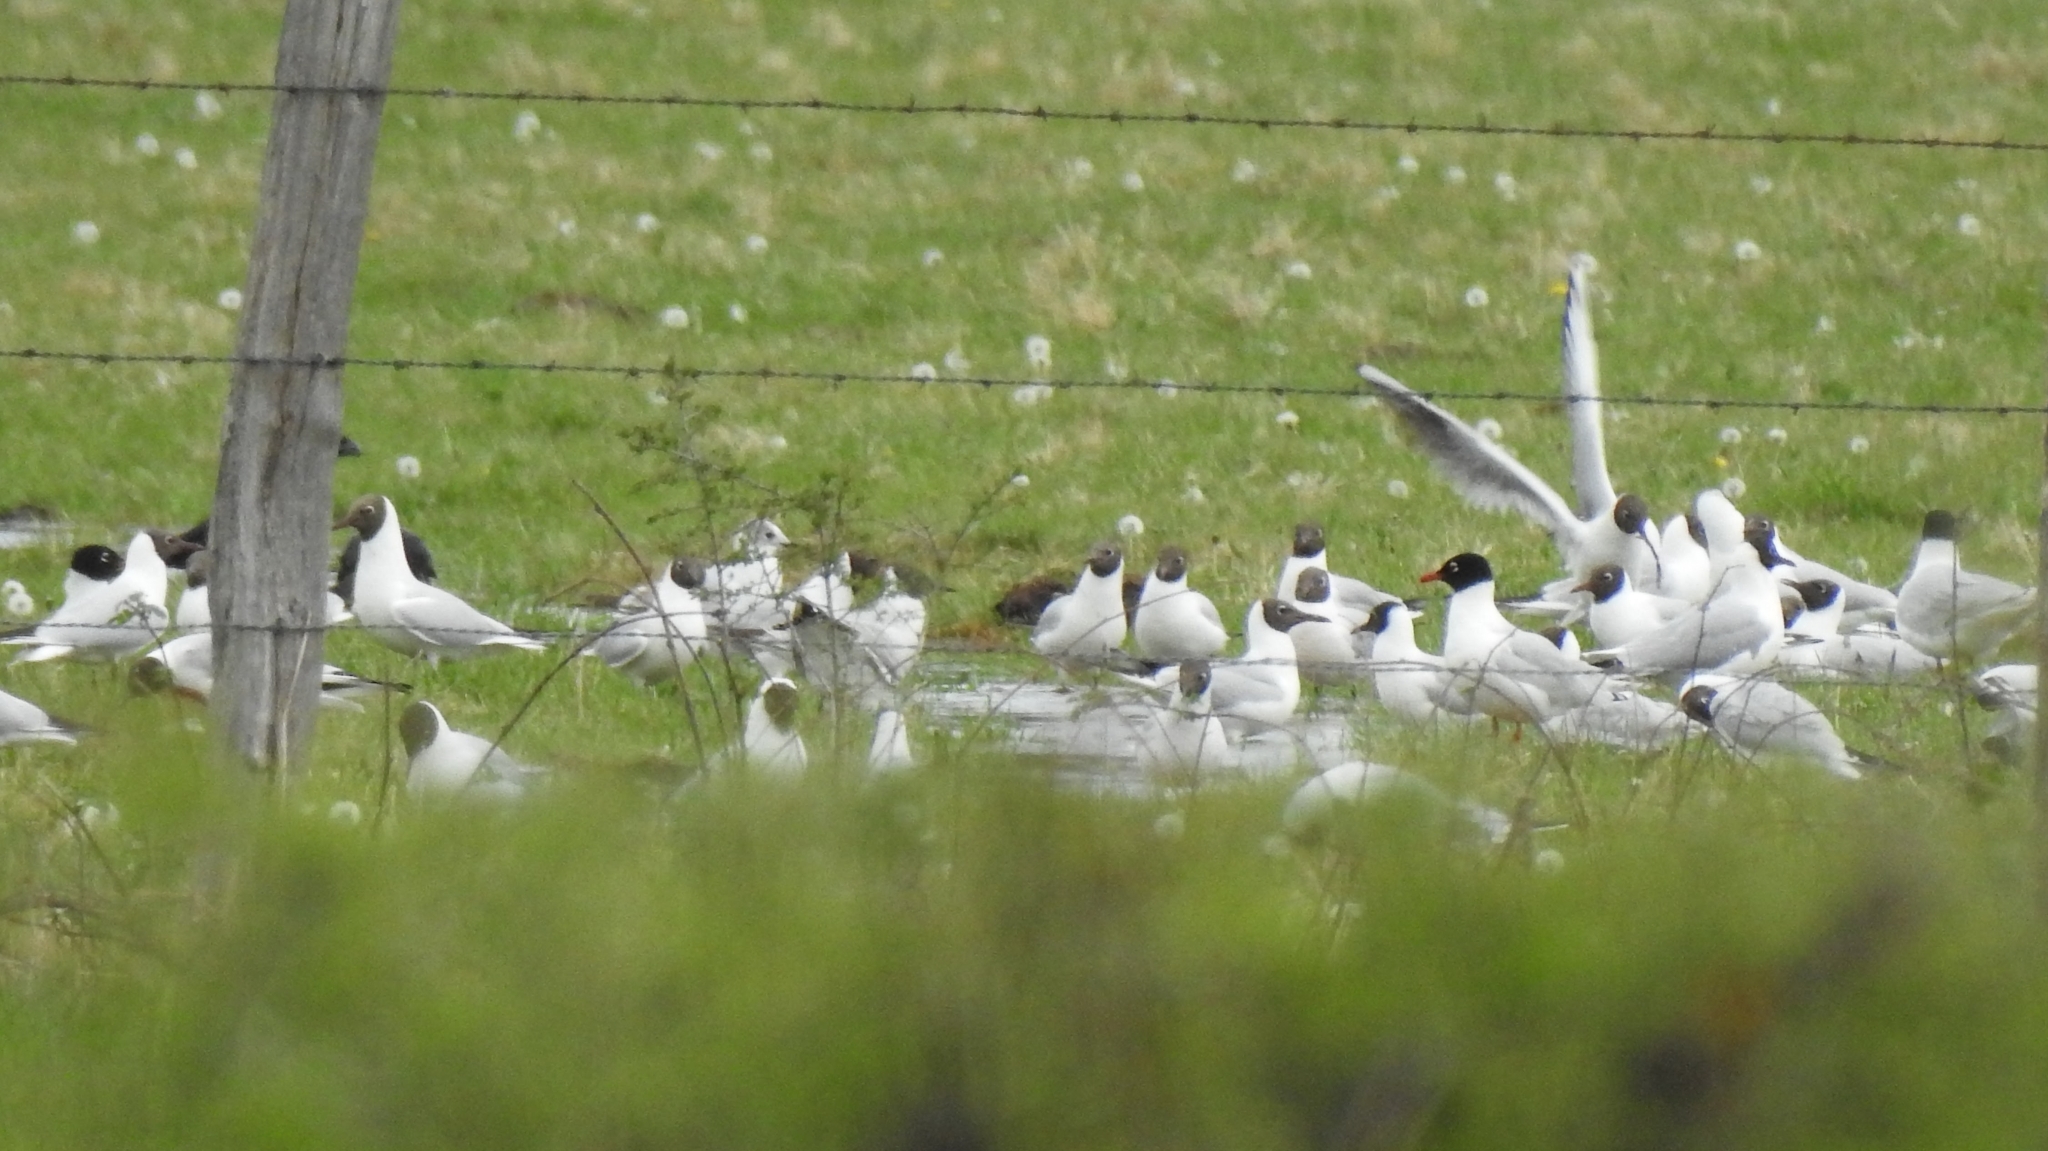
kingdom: Animalia
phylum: Chordata
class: Aves
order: Charadriiformes
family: Laridae
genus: Ichthyaetus
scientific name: Ichthyaetus melanocephalus
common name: Mediterranean gull
